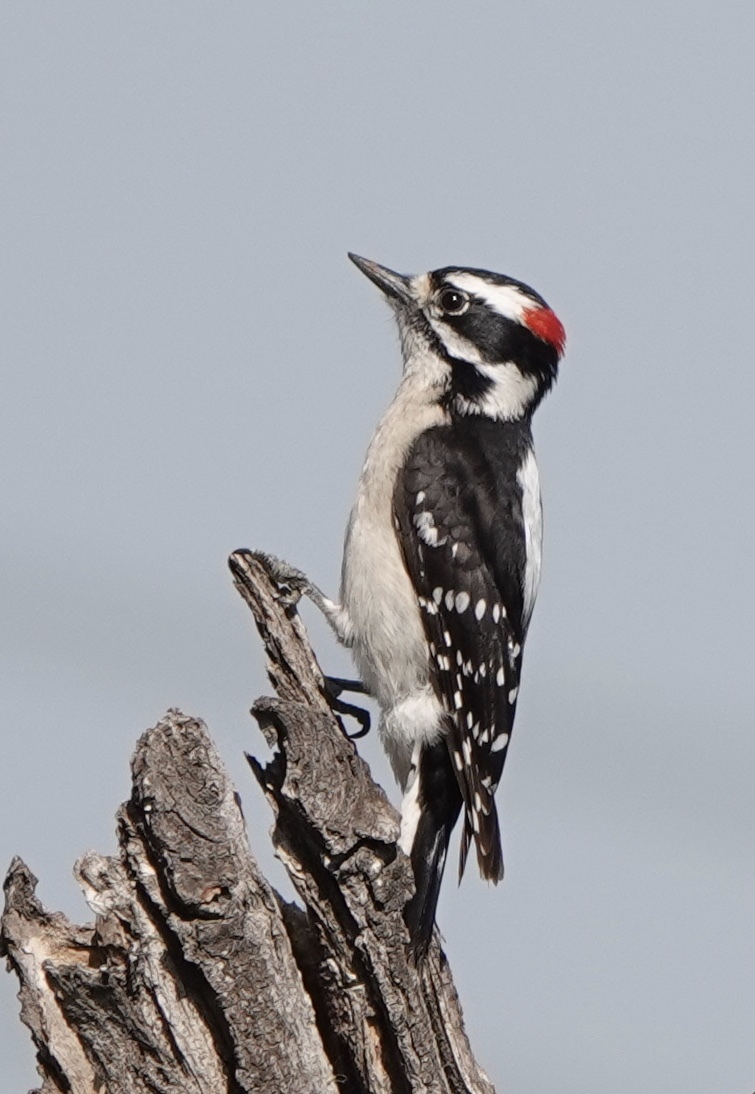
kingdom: Animalia
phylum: Chordata
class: Aves
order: Piciformes
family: Picidae
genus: Dryobates
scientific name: Dryobates pubescens
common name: Downy woodpecker
